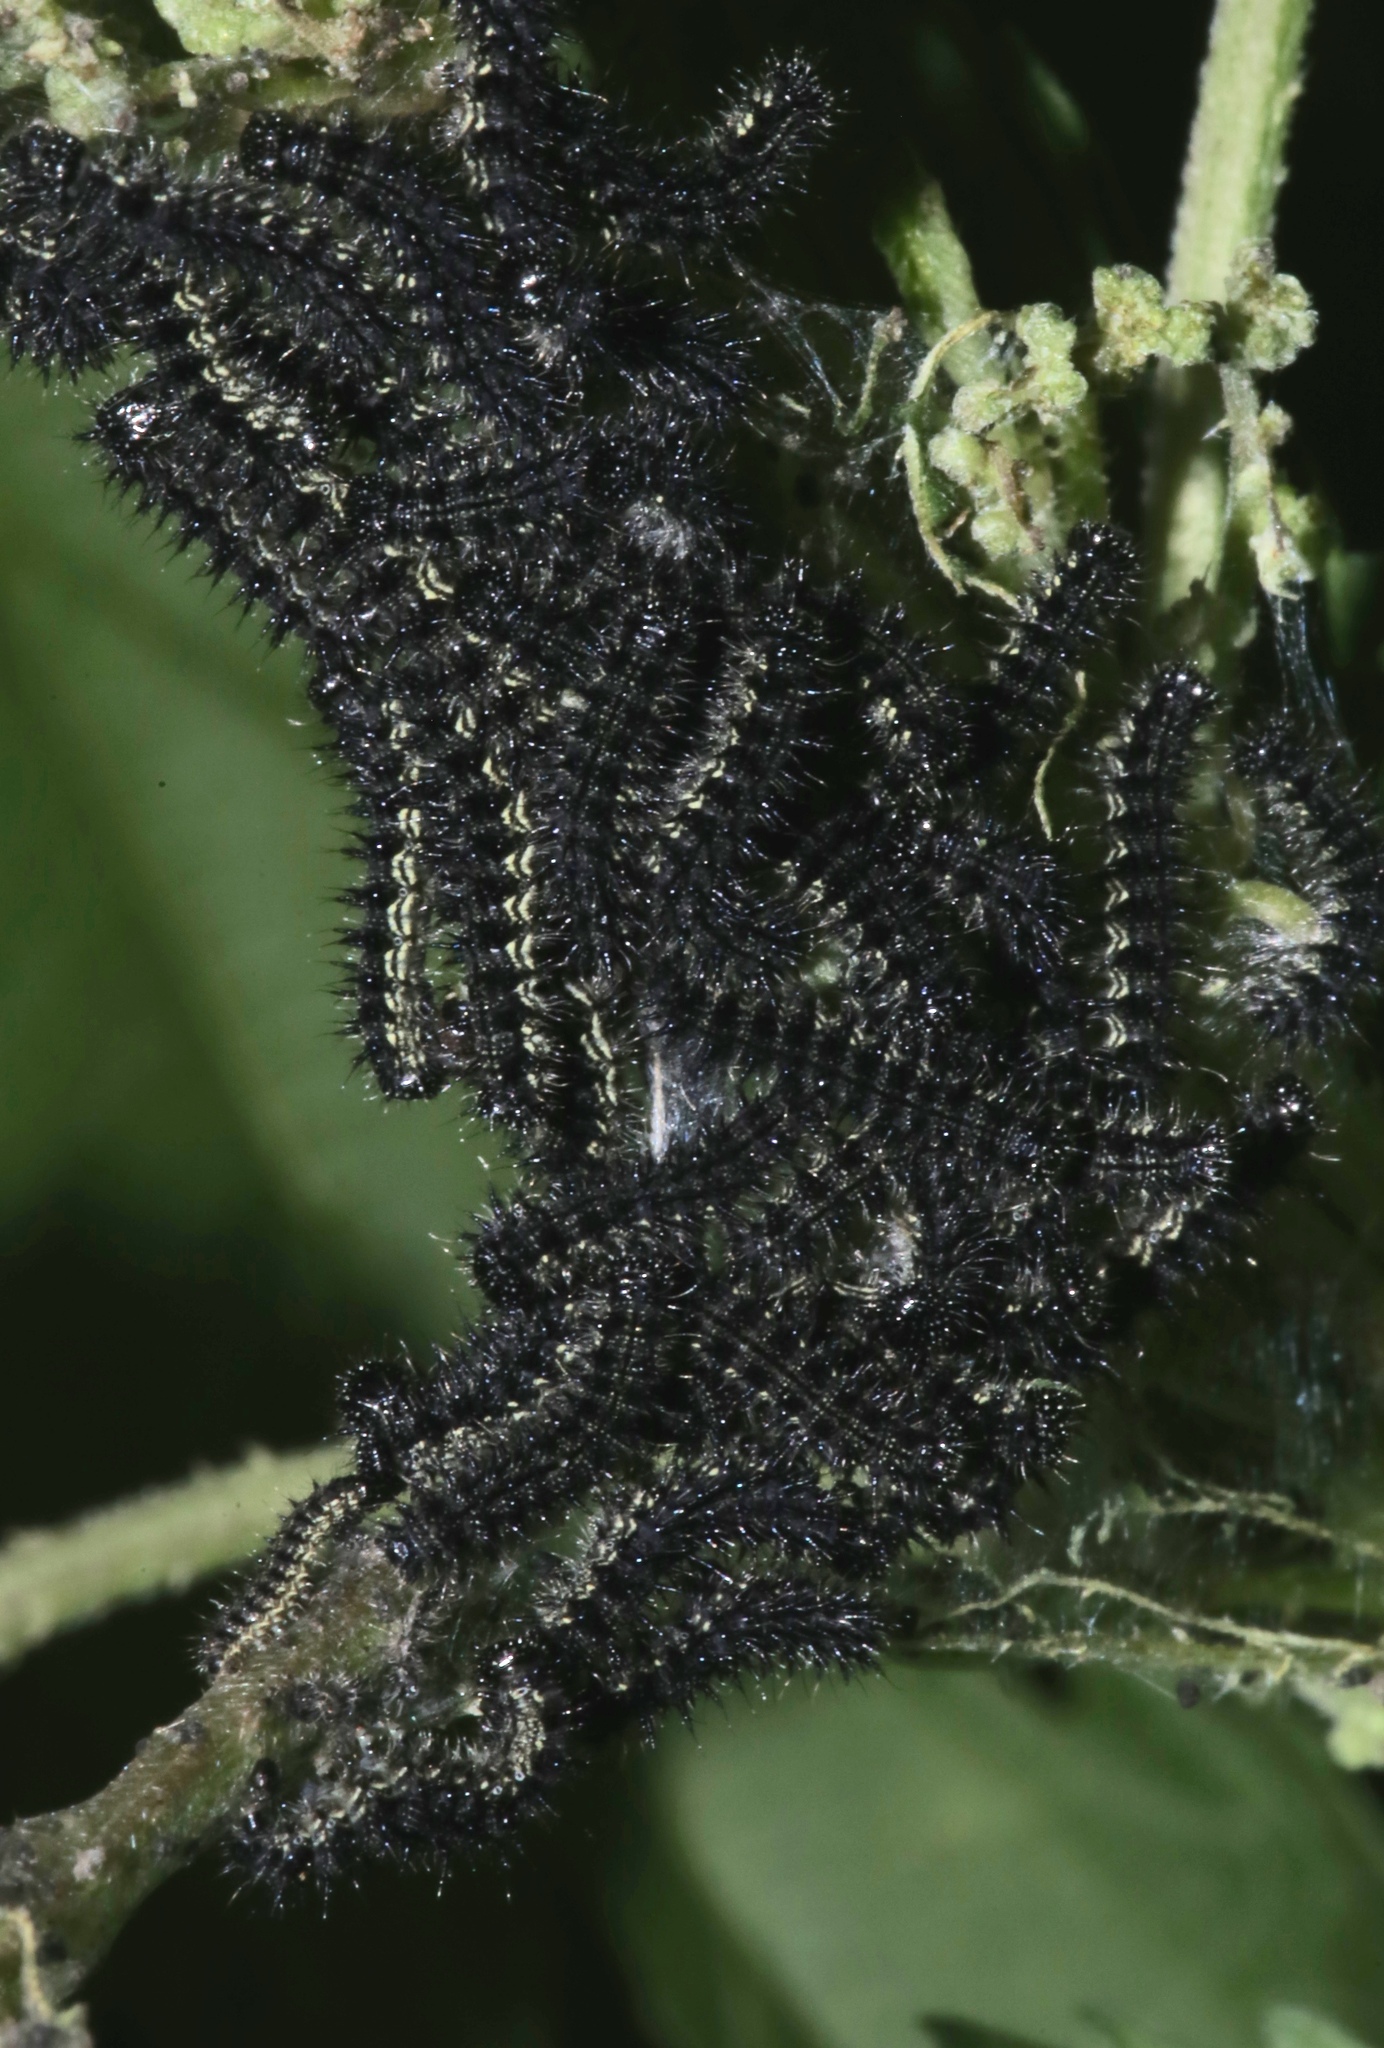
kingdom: Animalia
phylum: Arthropoda
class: Insecta
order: Lepidoptera
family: Nymphalidae
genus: Aglais
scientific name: Aglais milberti
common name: Milbert's tortoiseshell
